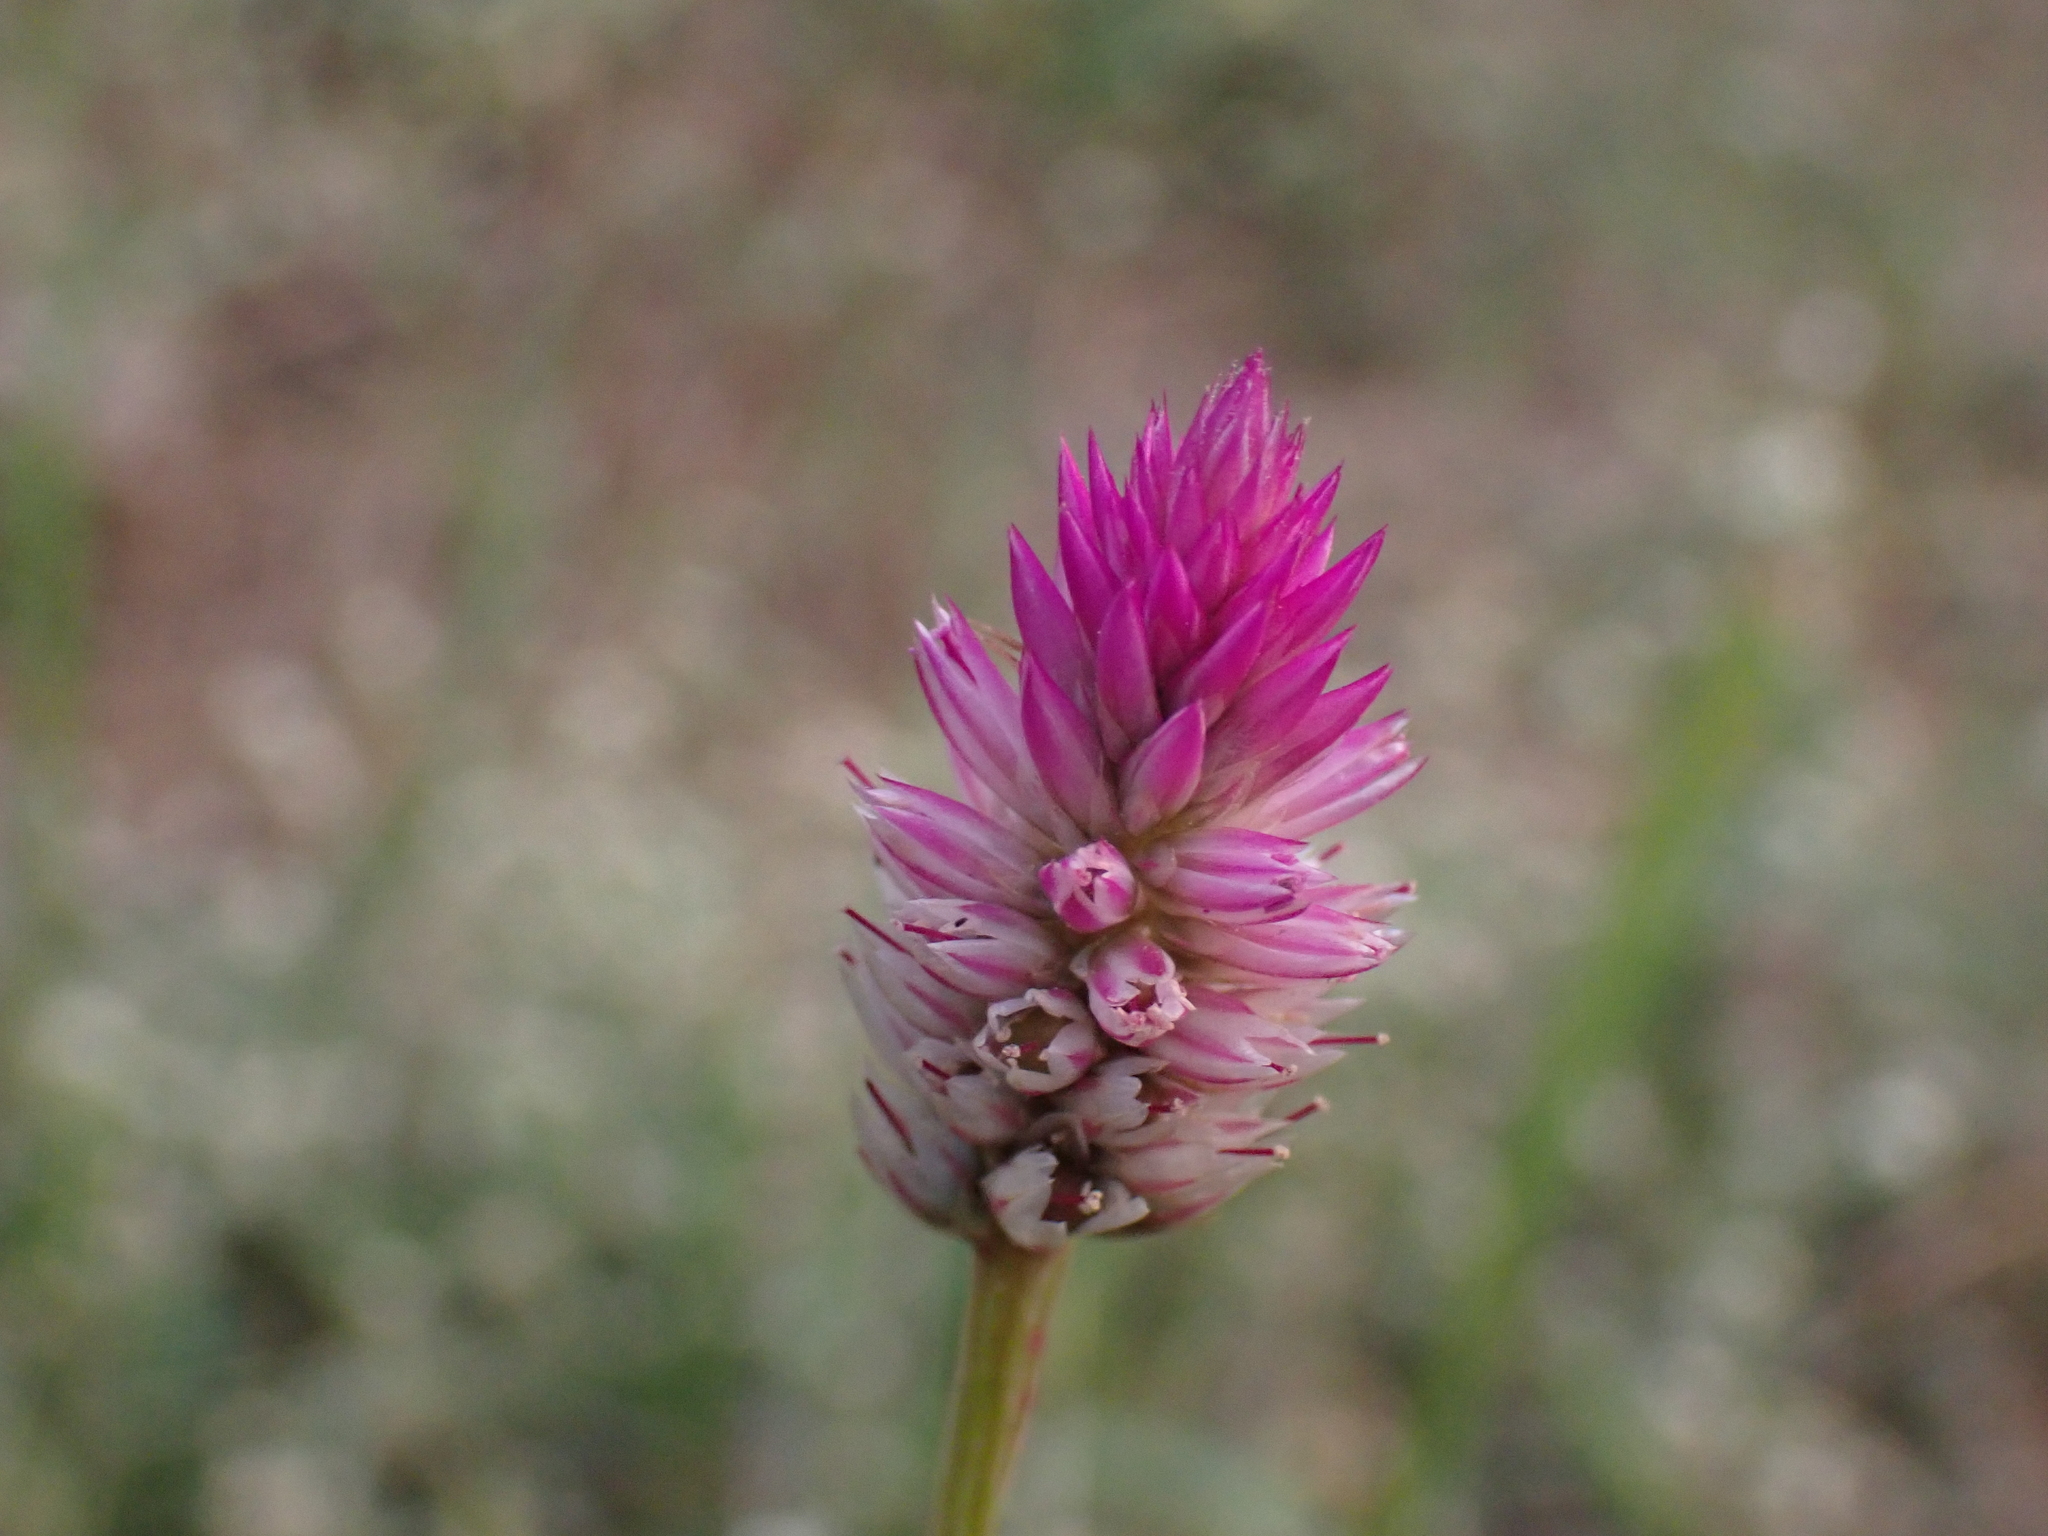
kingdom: Plantae
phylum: Tracheophyta
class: Magnoliopsida
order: Caryophyllales
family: Amaranthaceae
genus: Celosia
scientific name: Celosia argentea
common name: Feather cockscomb
